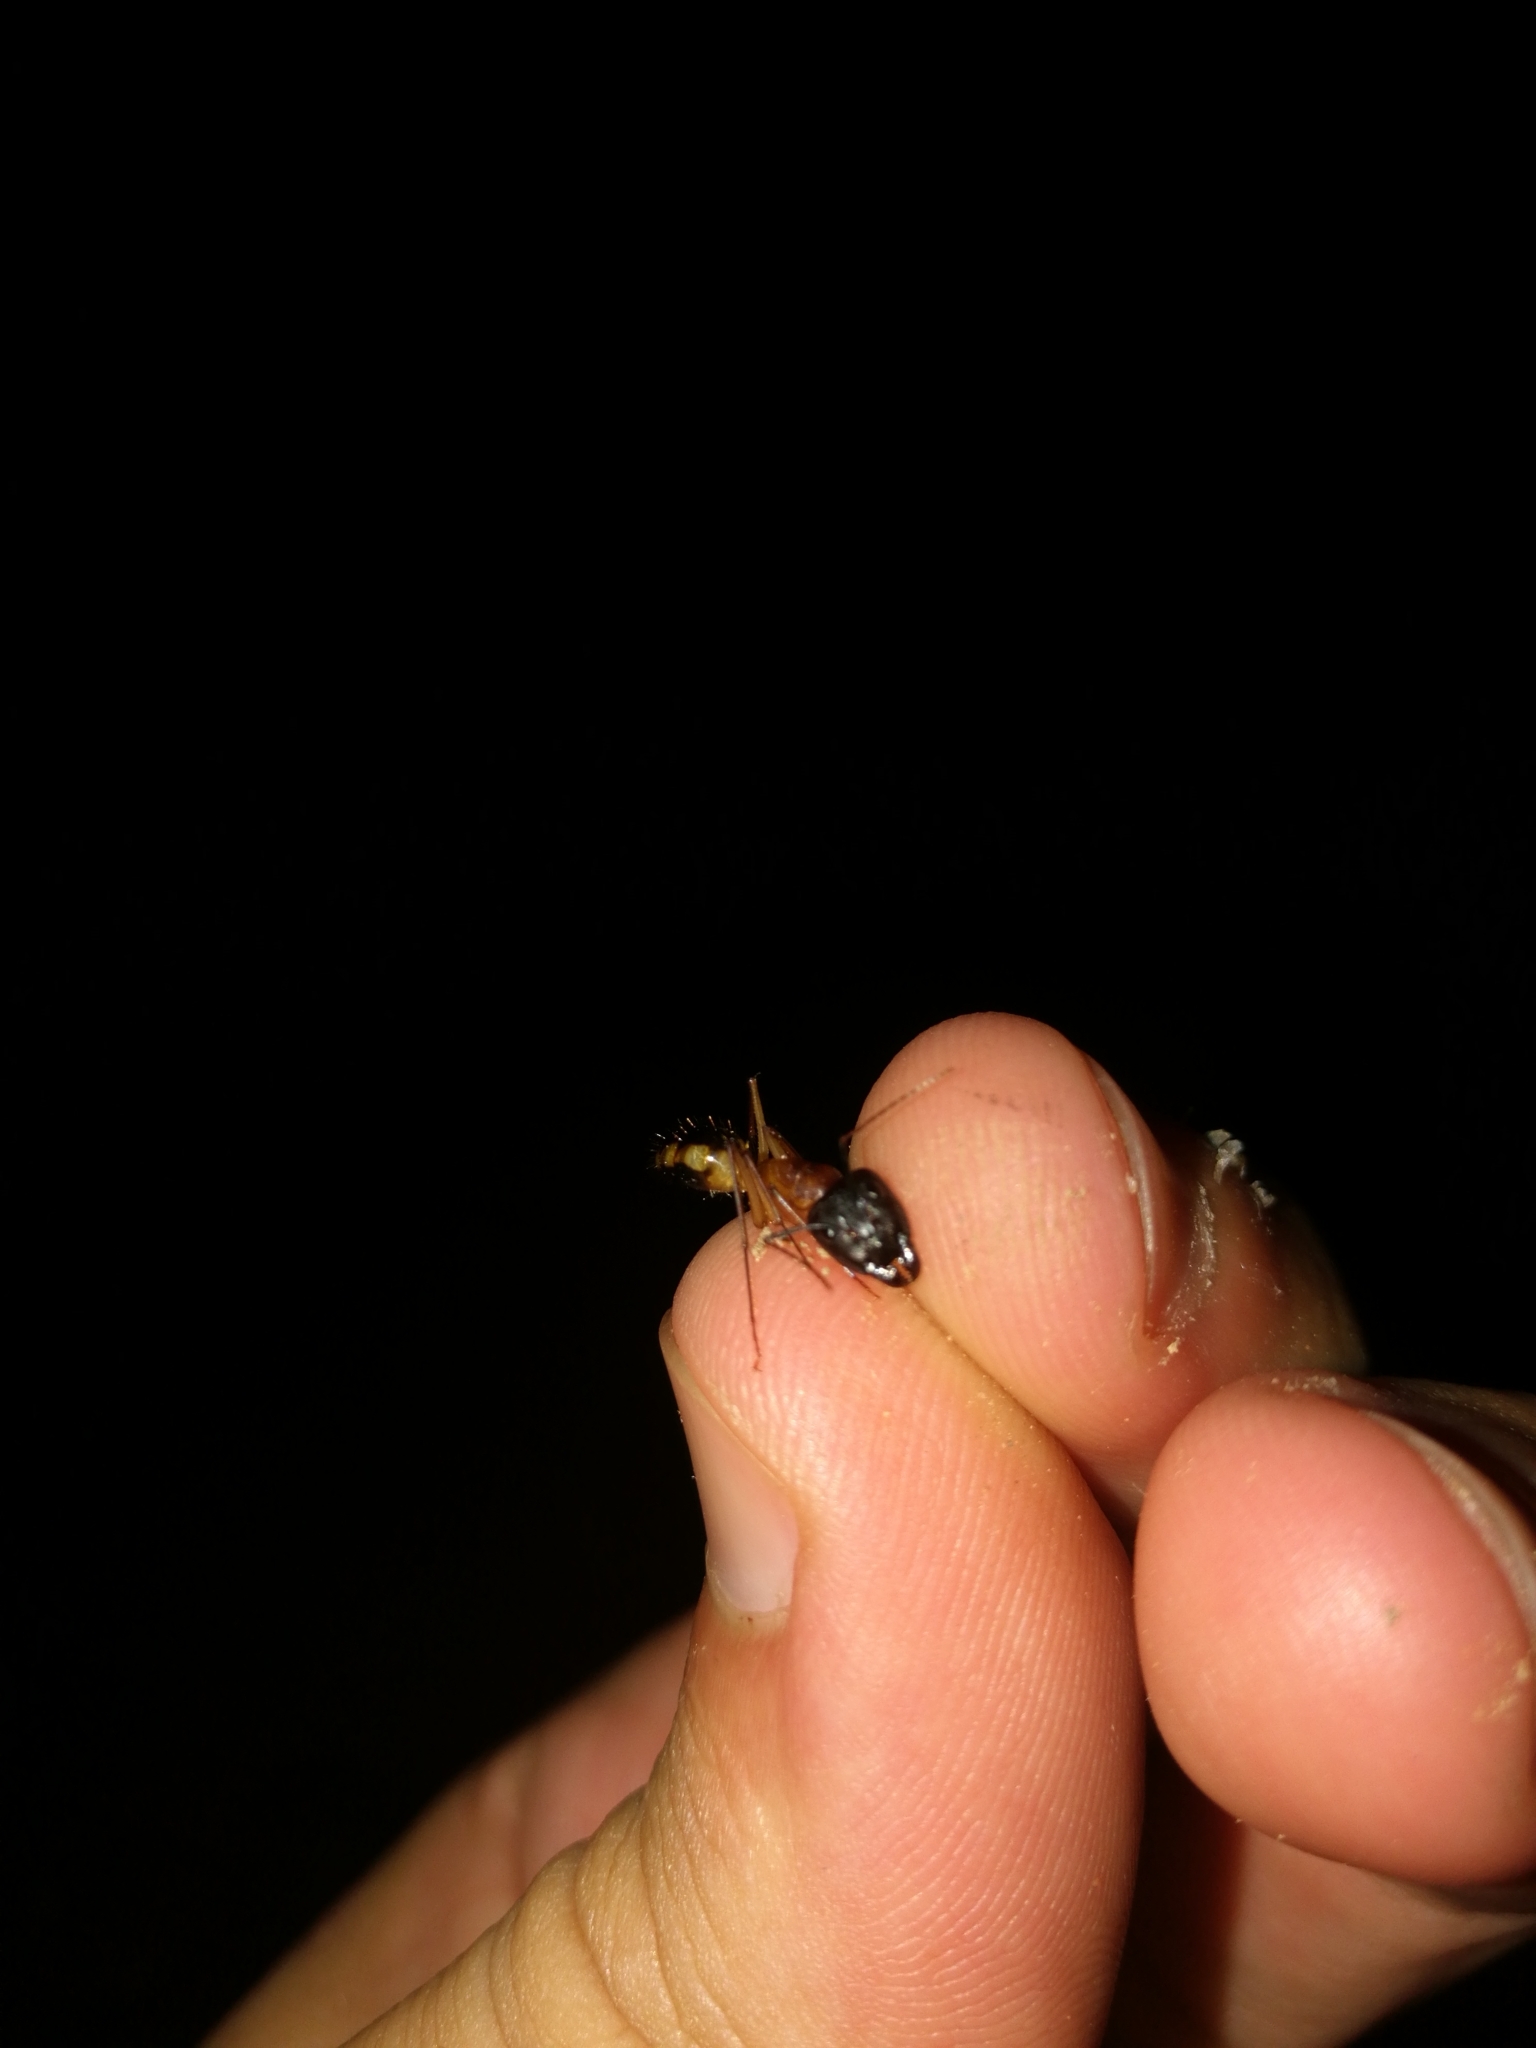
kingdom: Animalia
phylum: Arthropoda
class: Insecta
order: Hymenoptera
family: Formicidae
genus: Camponotus
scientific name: Camponotus maculatus
